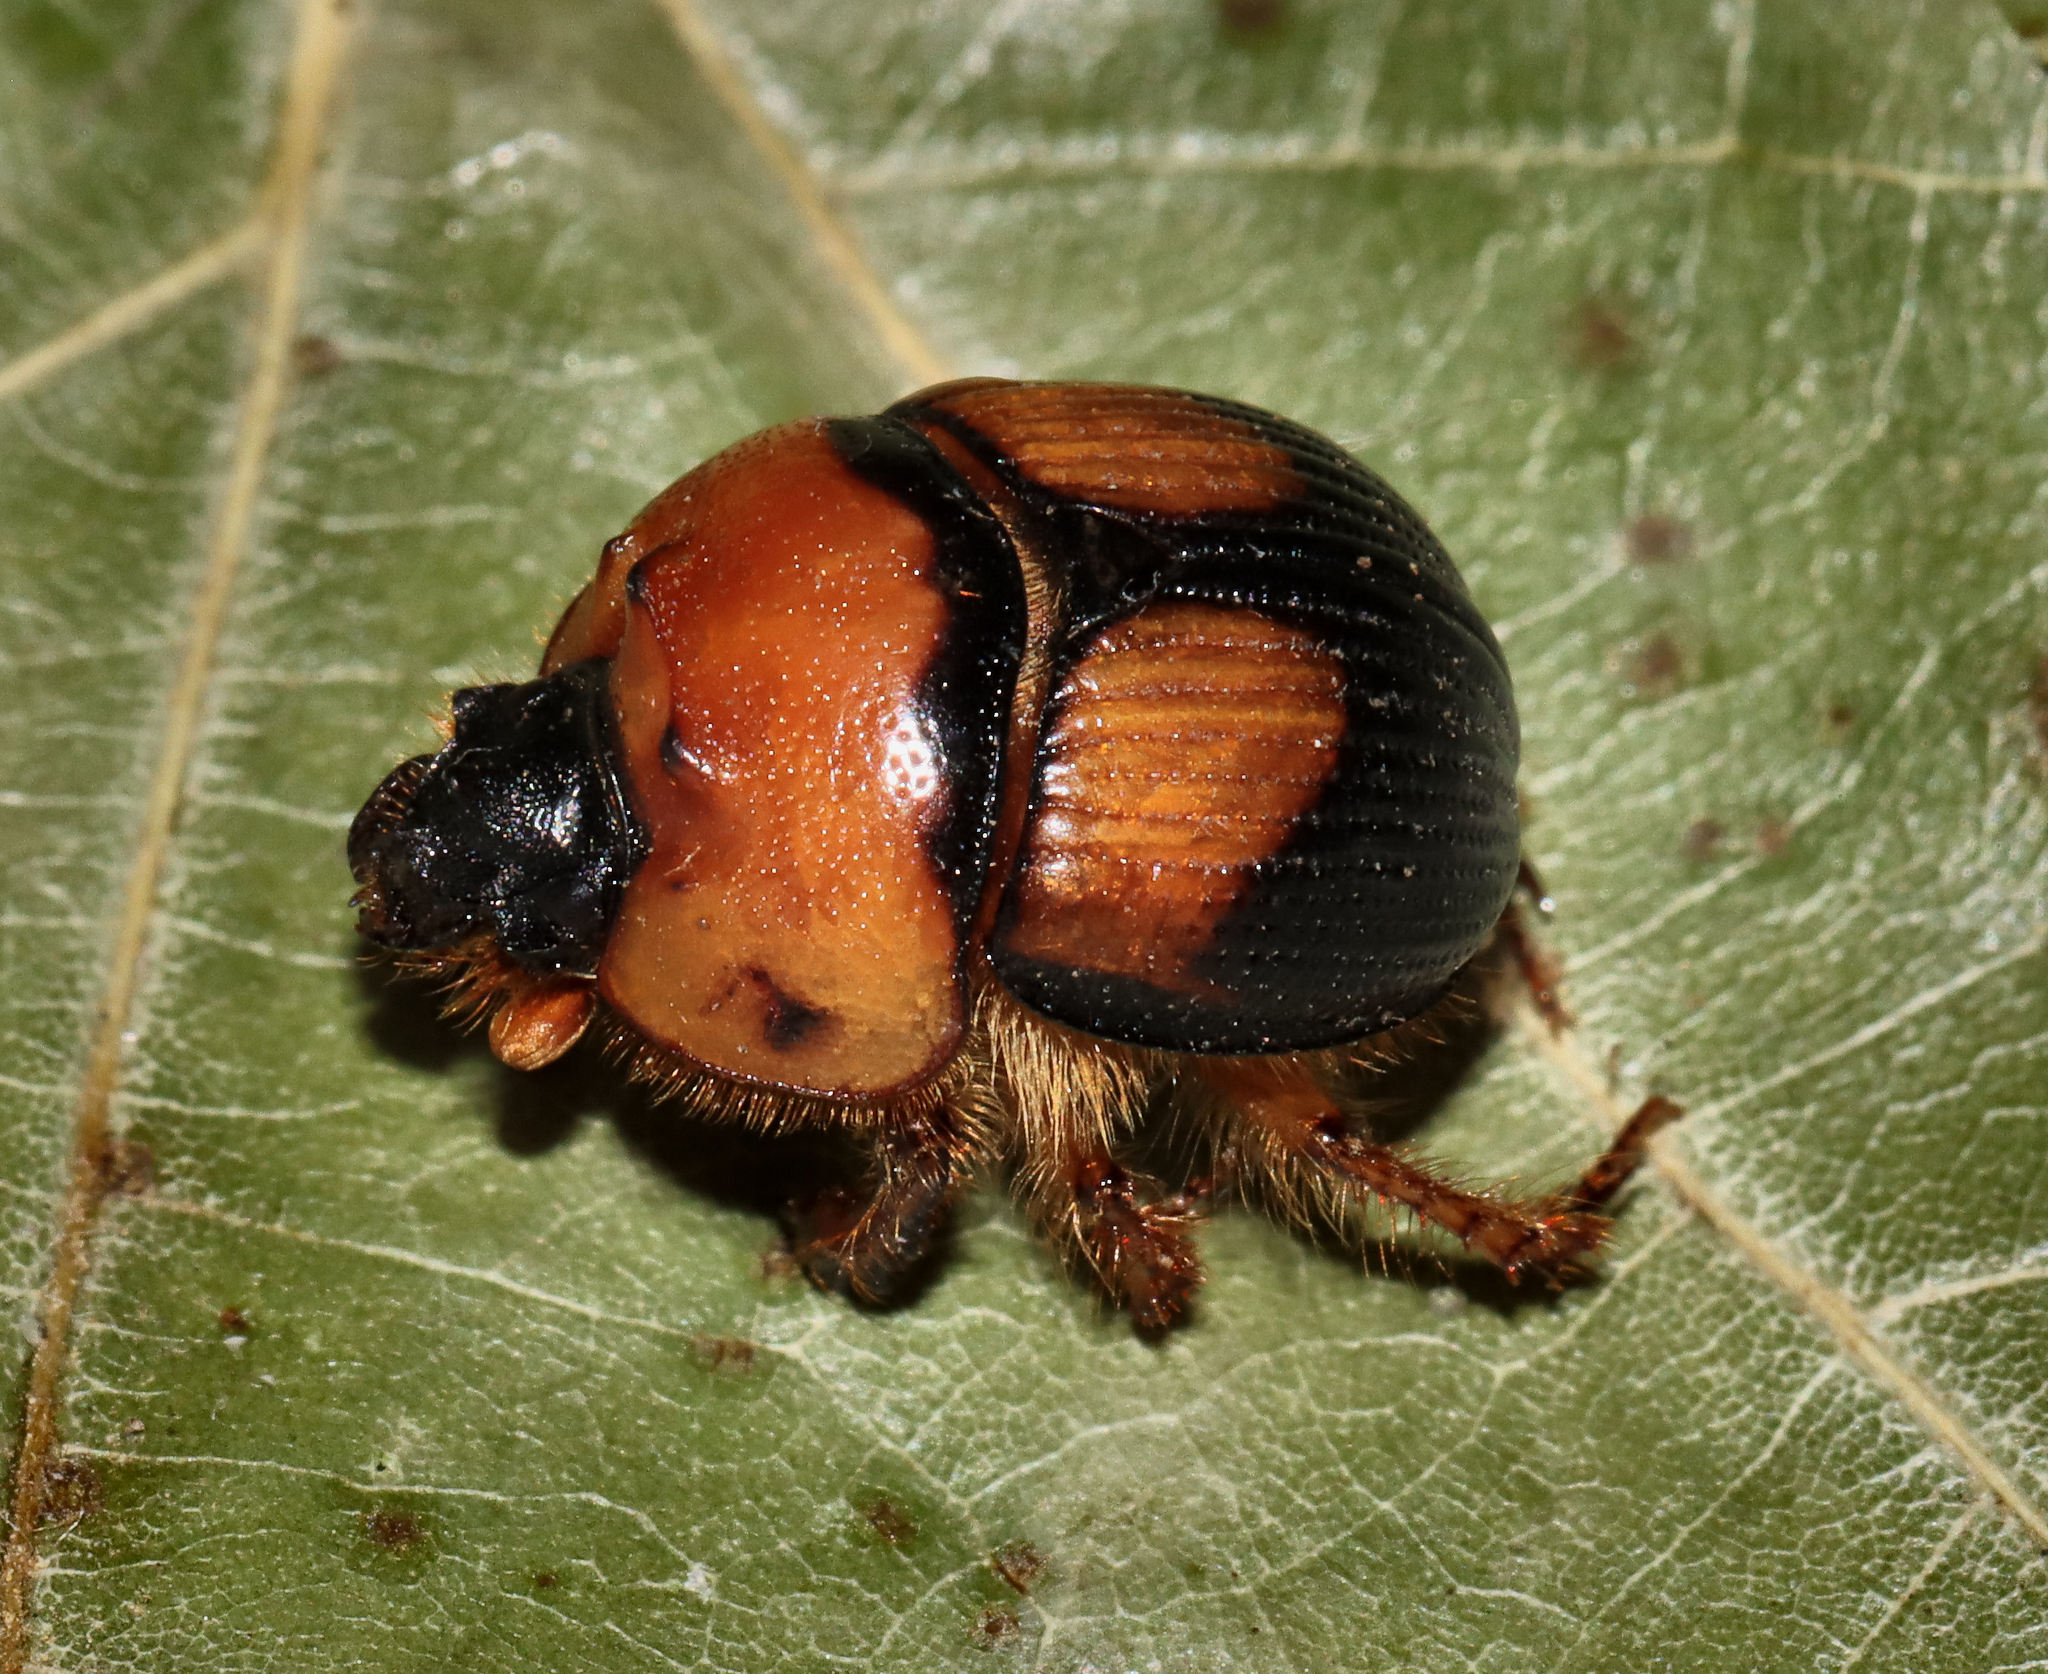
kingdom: Animalia
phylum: Arthropoda
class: Insecta
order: Coleoptera
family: Geotrupidae
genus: Bolbocerosoma
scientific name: Bolbocerosoma bruneri
